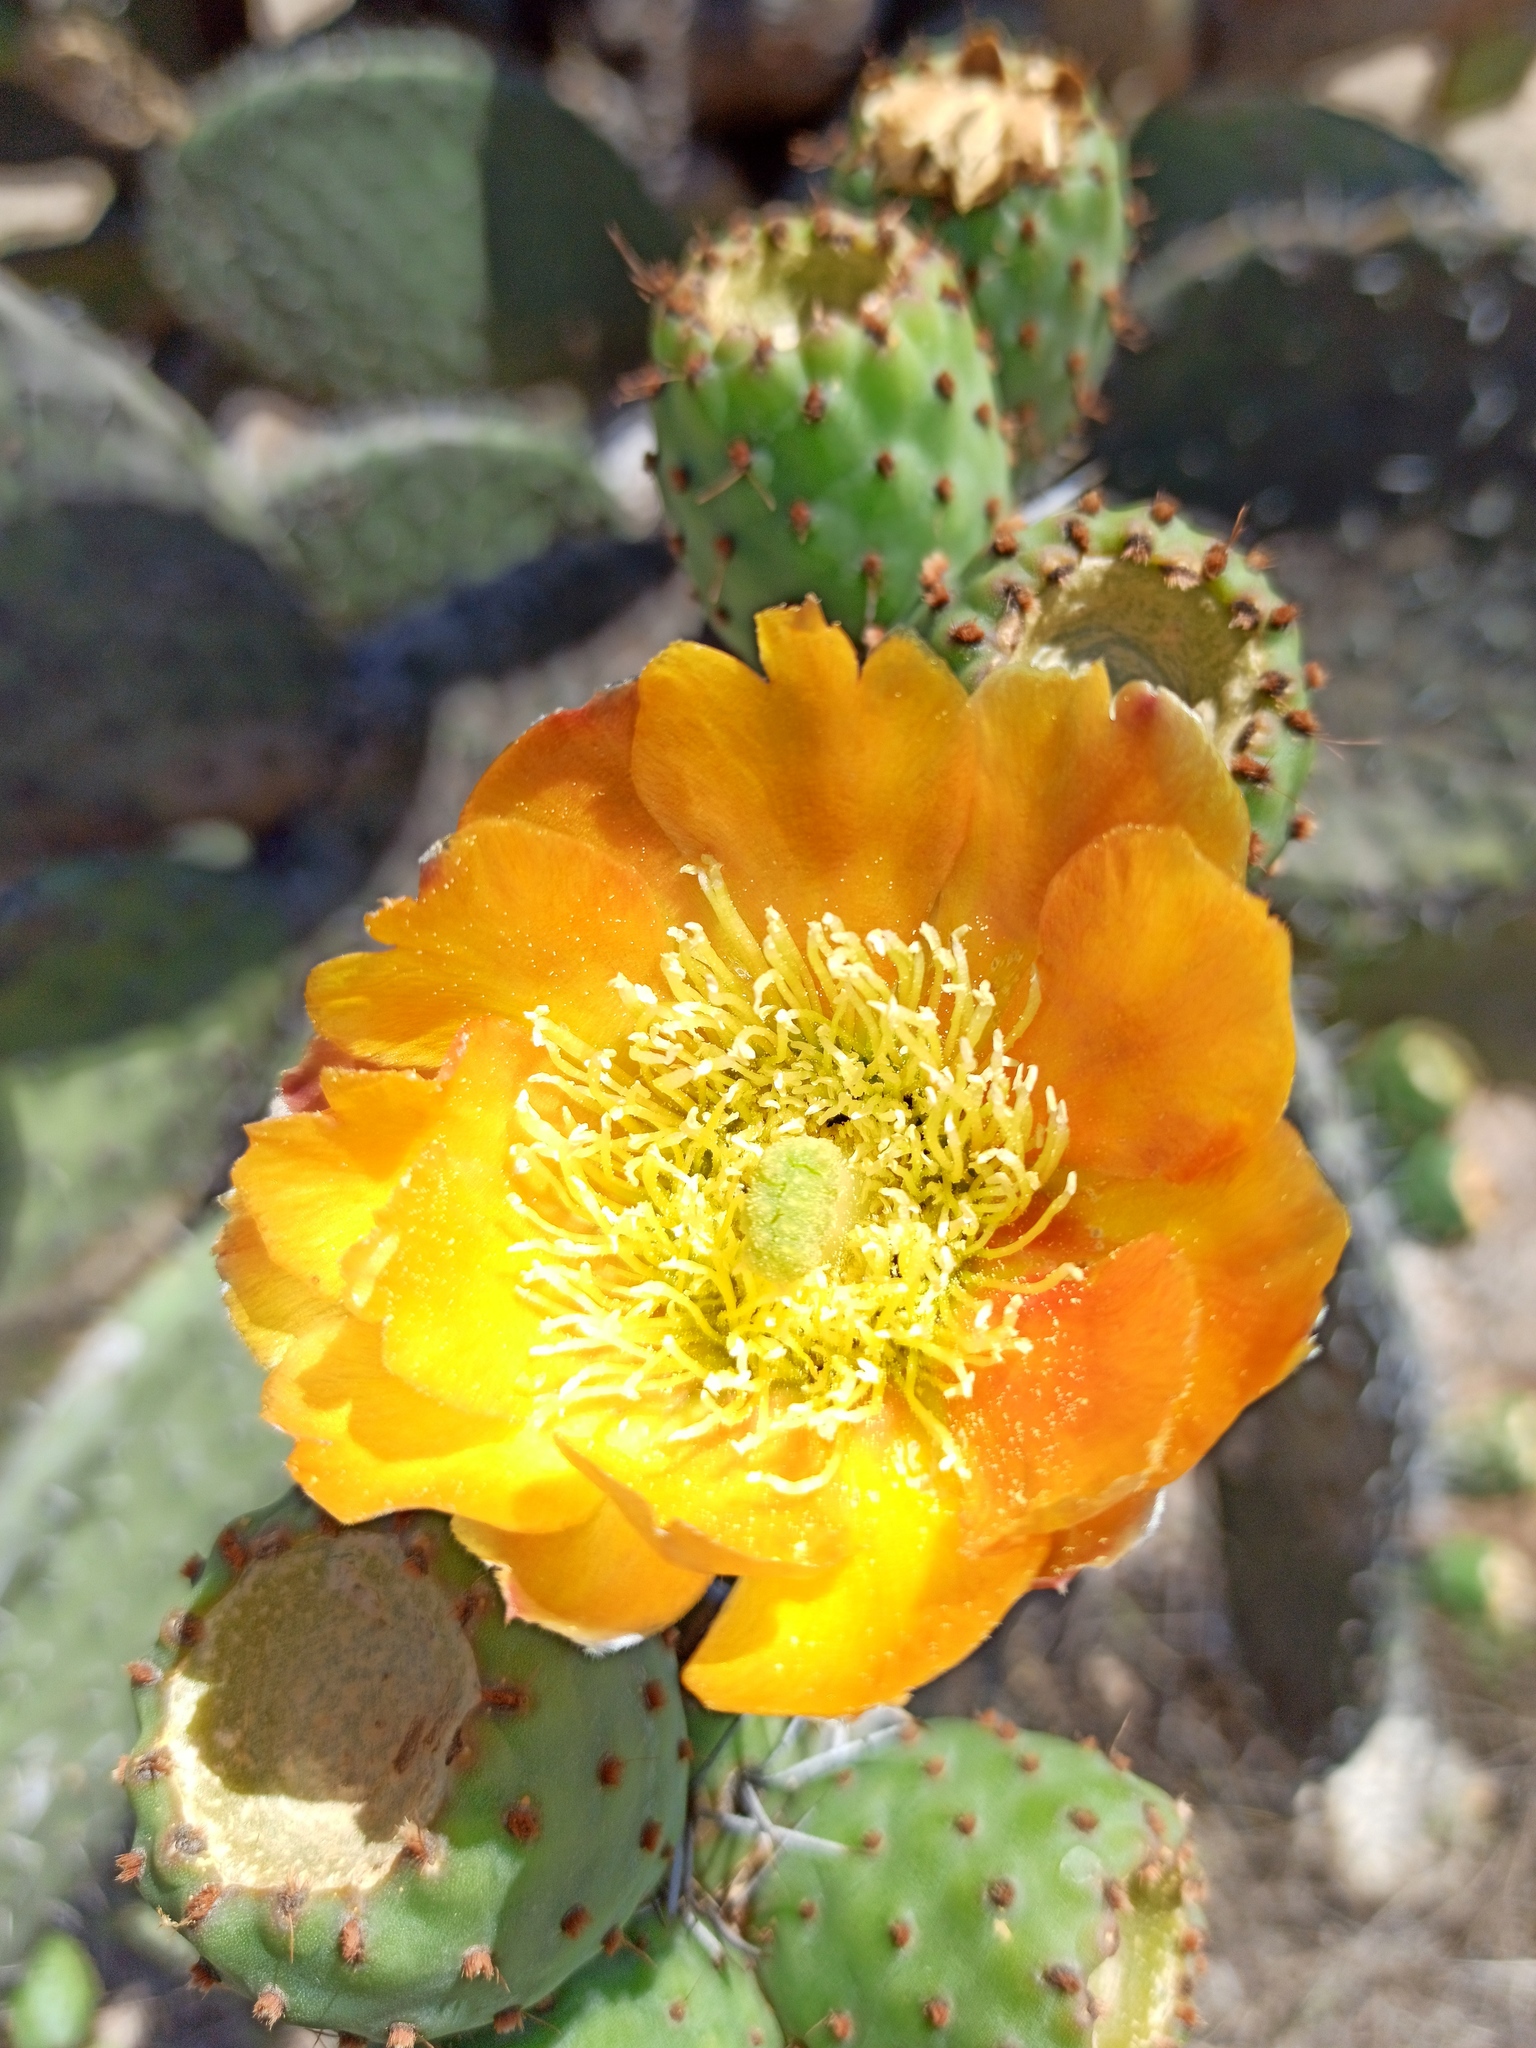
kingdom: Plantae
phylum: Tracheophyta
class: Magnoliopsida
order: Caryophyllales
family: Cactaceae
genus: Opuntia
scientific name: Opuntia streptacantha
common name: Gracemere-pear
